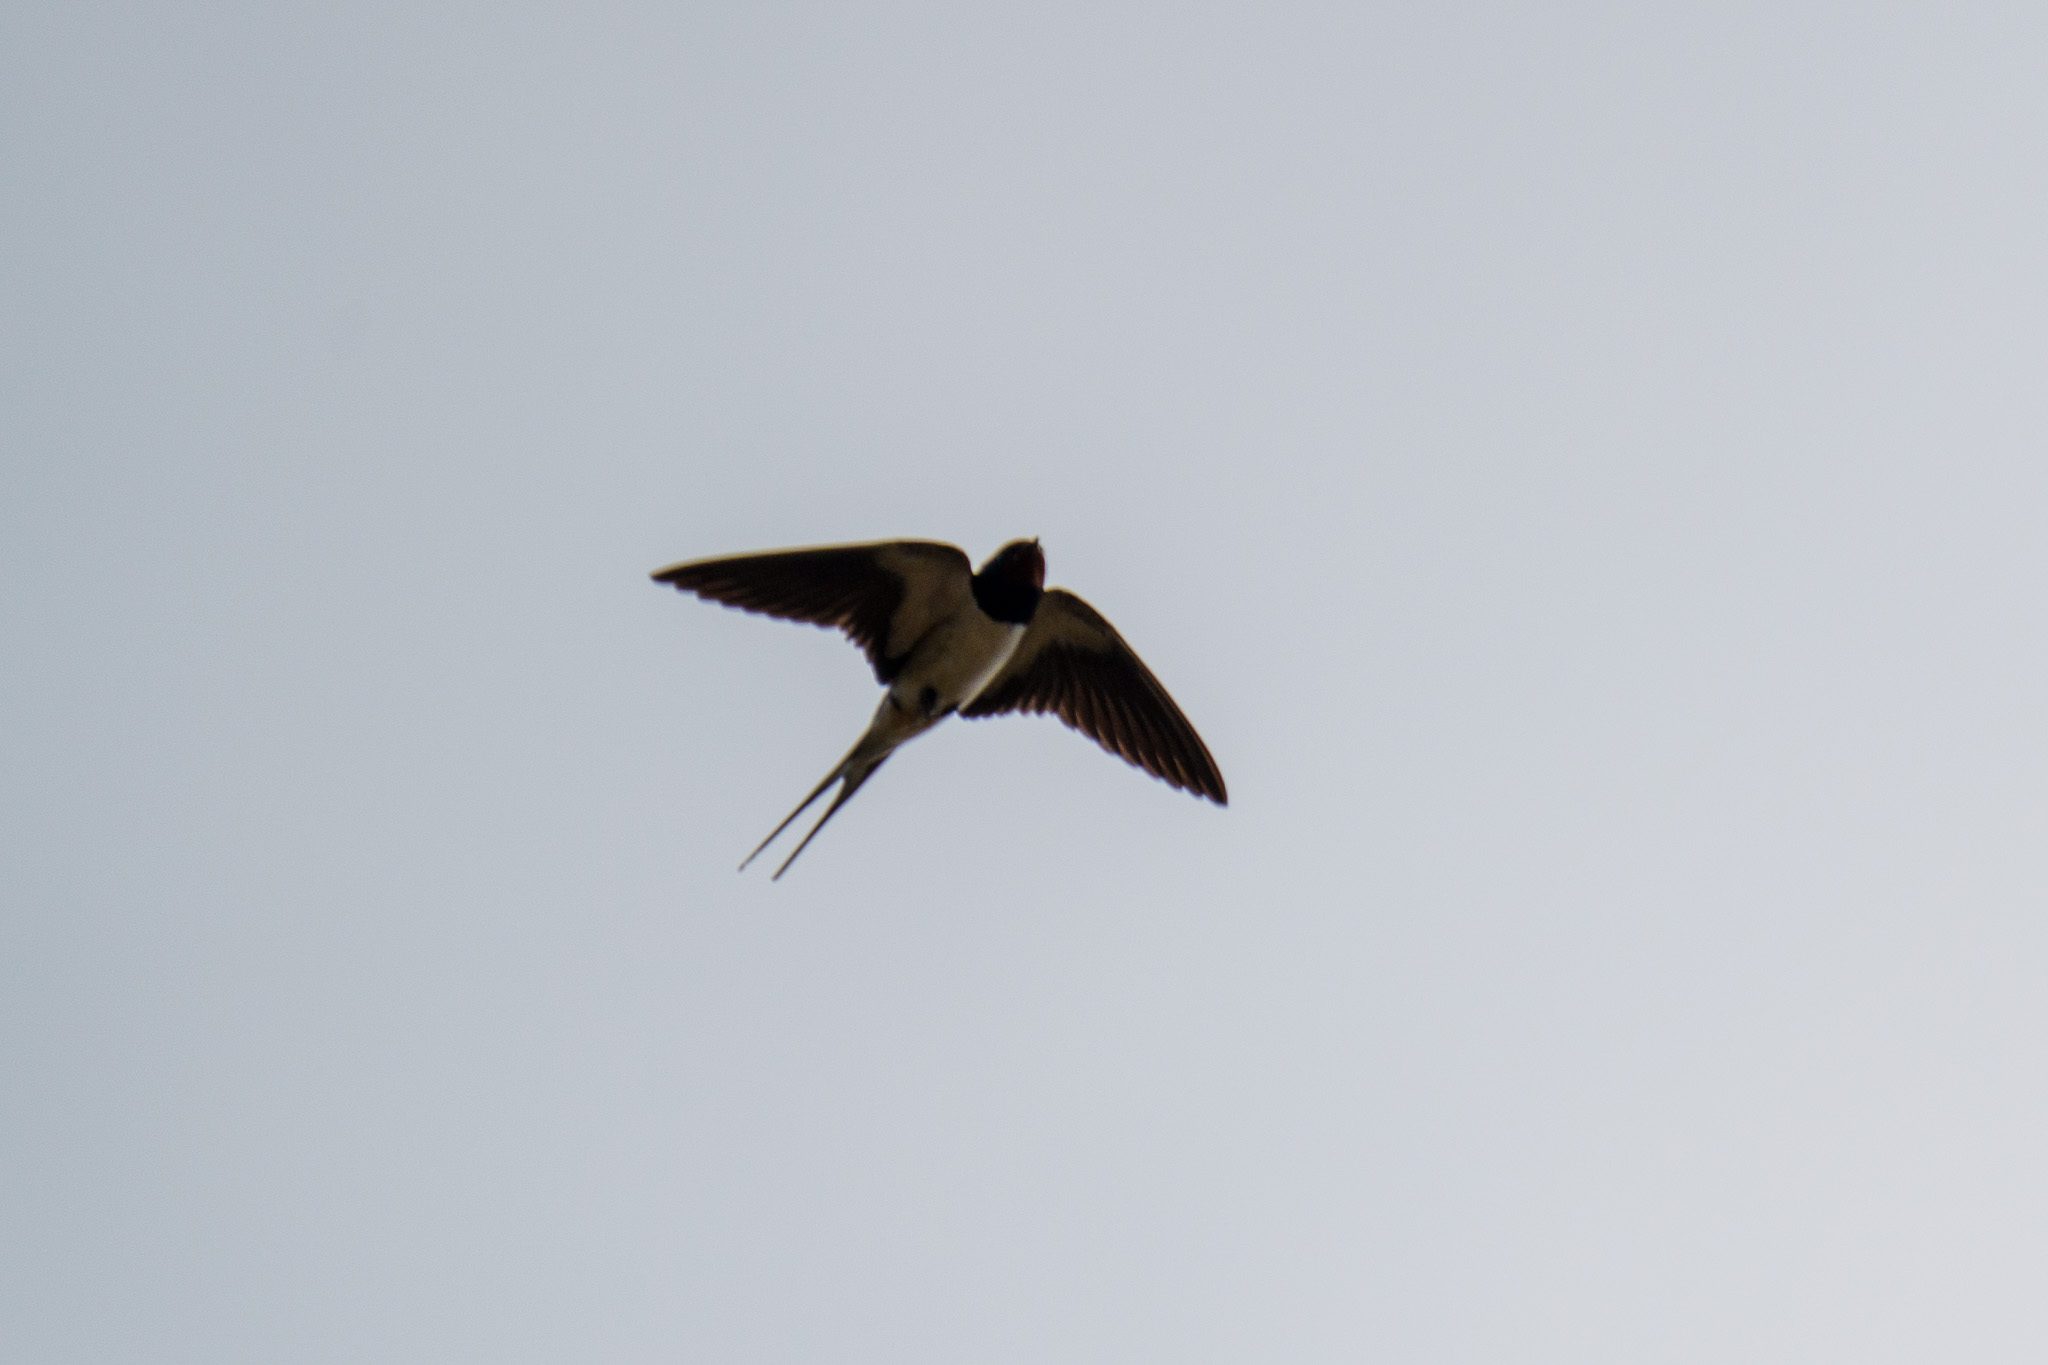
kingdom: Animalia
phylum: Chordata
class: Aves
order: Passeriformes
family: Hirundinidae
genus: Hirundo
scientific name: Hirundo rustica
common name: Barn swallow
